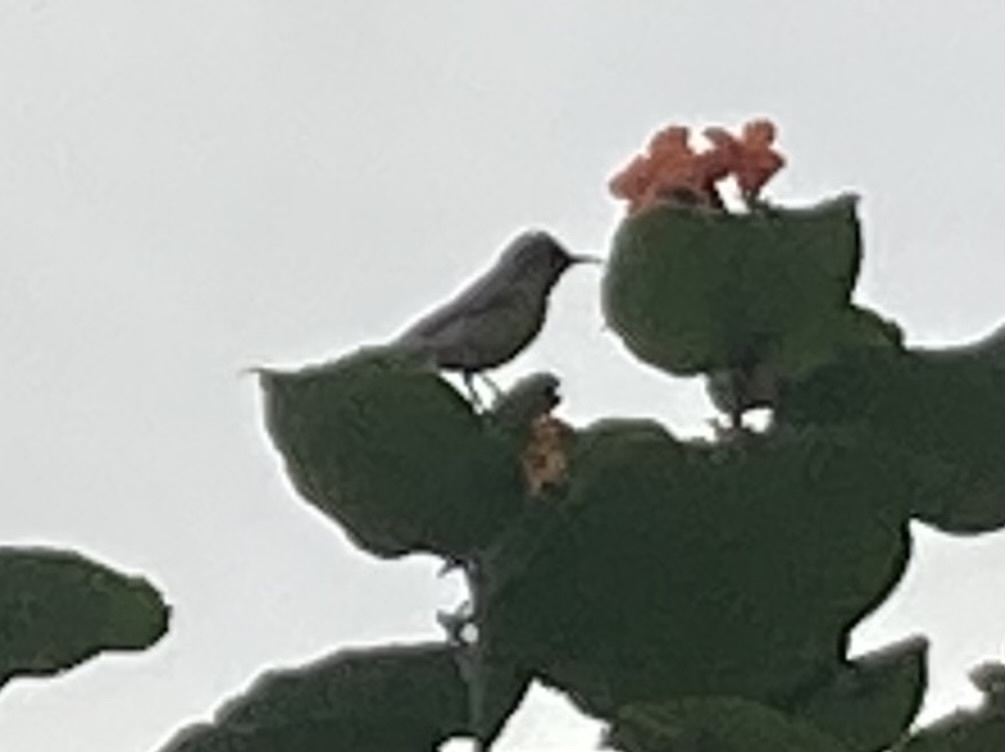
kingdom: Animalia
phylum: Chordata
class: Aves
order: Passeriformes
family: Nectariniidae
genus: Cinnyris
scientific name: Cinnyris asiaticus
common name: Purple sunbird
